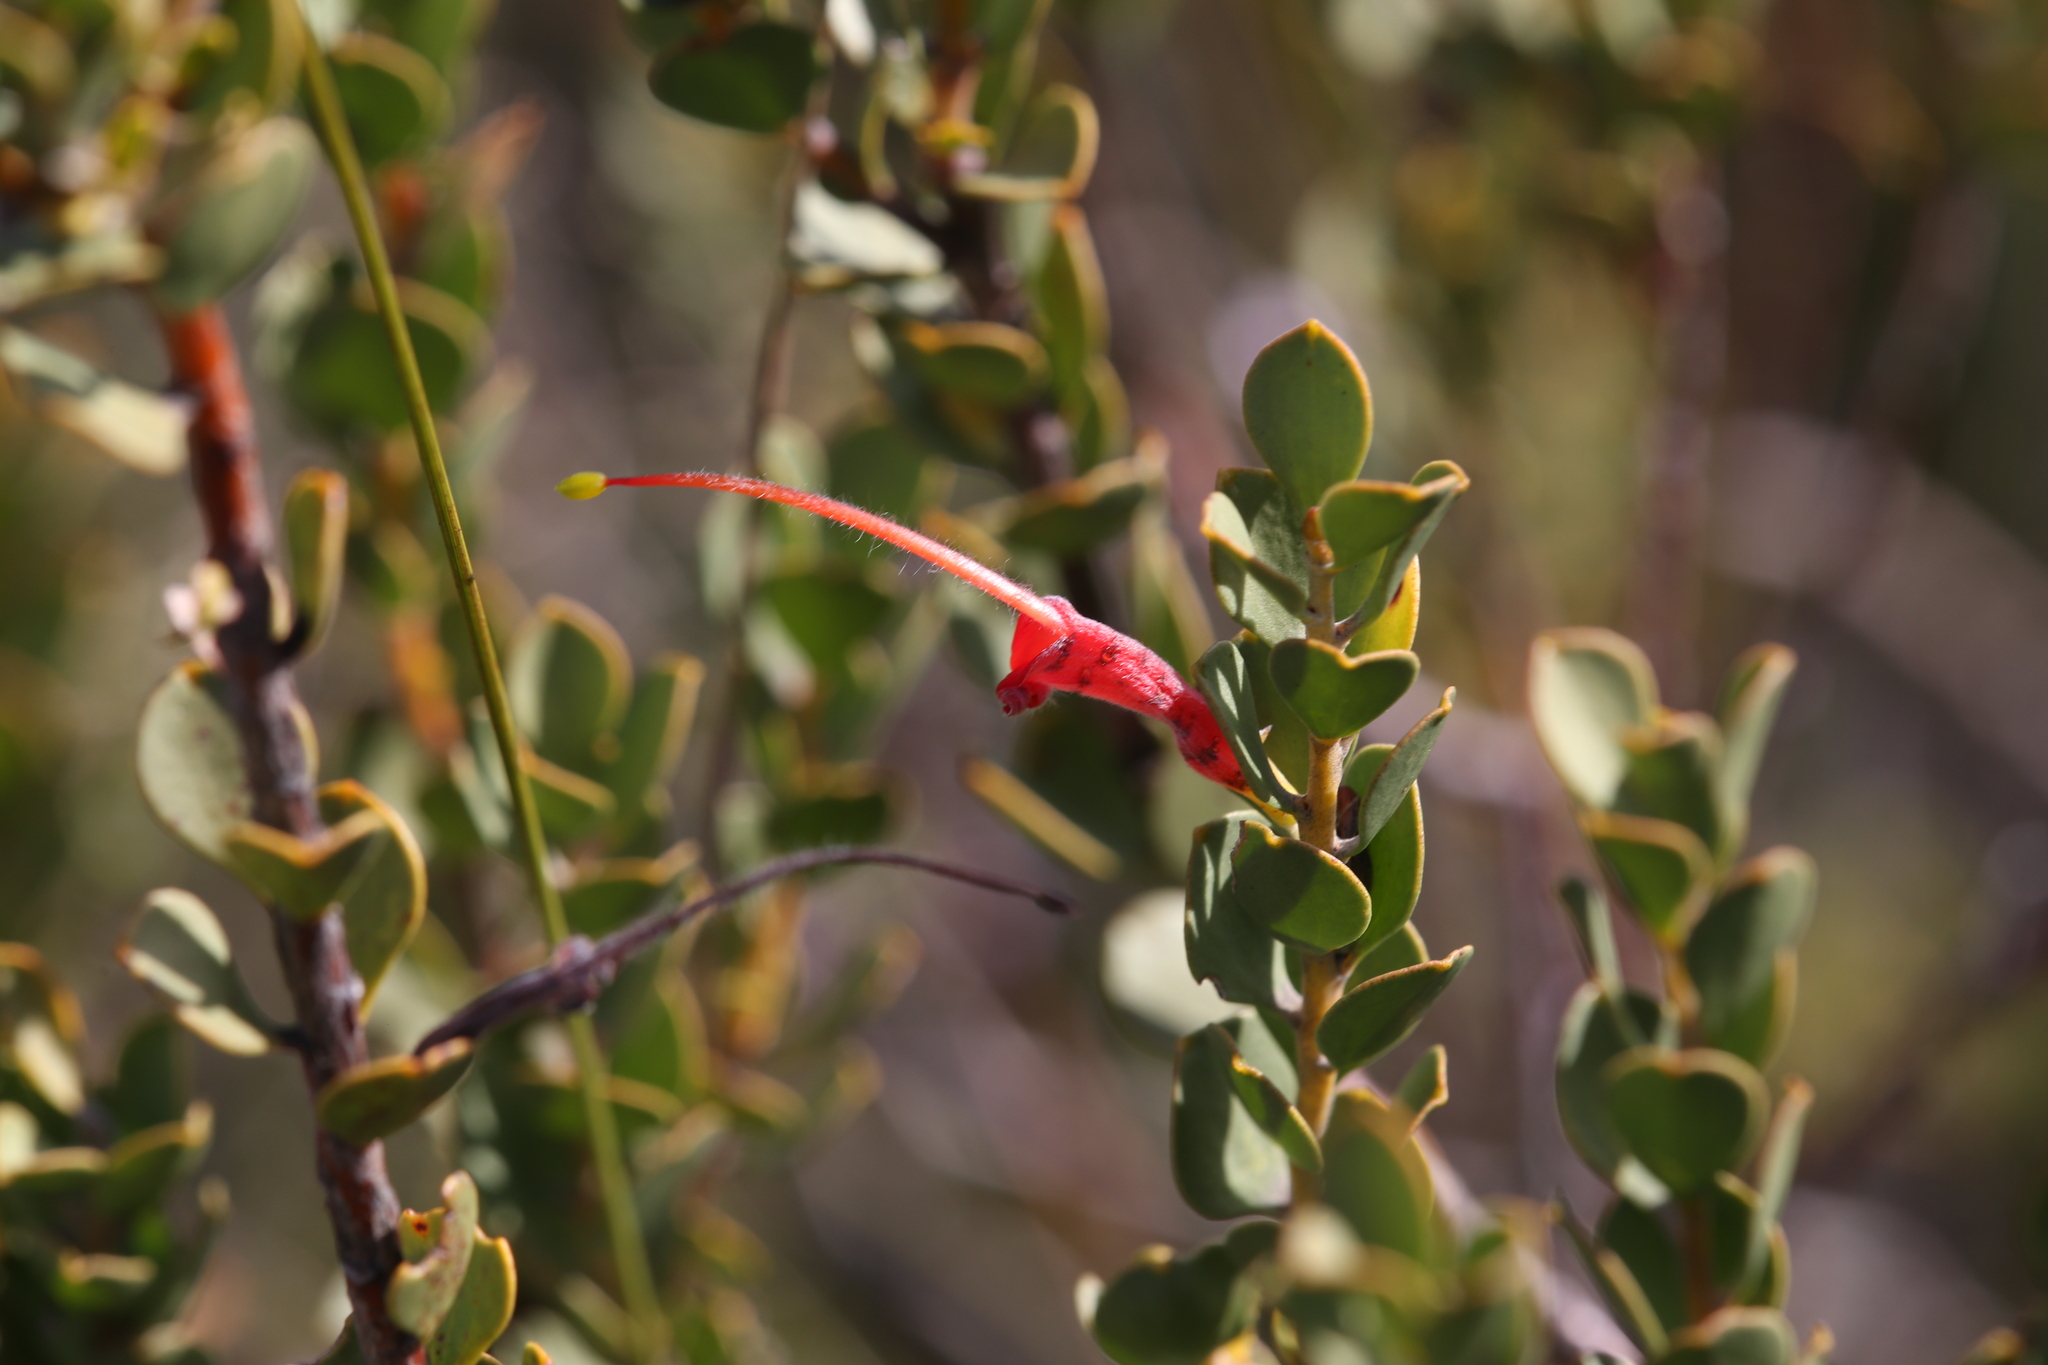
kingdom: Plantae
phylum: Tracheophyta
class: Magnoliopsida
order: Proteales
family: Proteaceae
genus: Adenanthos
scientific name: Adenanthos obovatus
